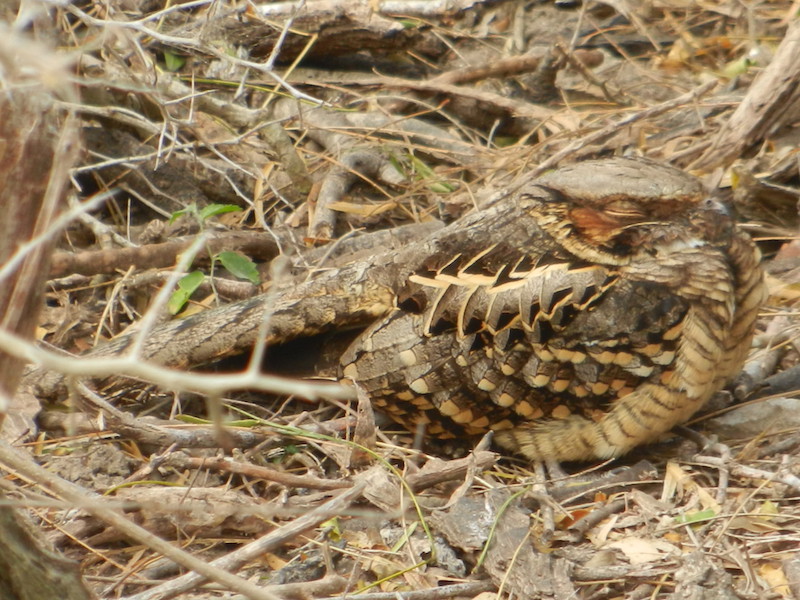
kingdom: Animalia
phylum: Chordata
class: Aves
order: Caprimulgiformes
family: Caprimulgidae
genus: Nyctidromus
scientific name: Nyctidromus albicollis
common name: Pauraque
